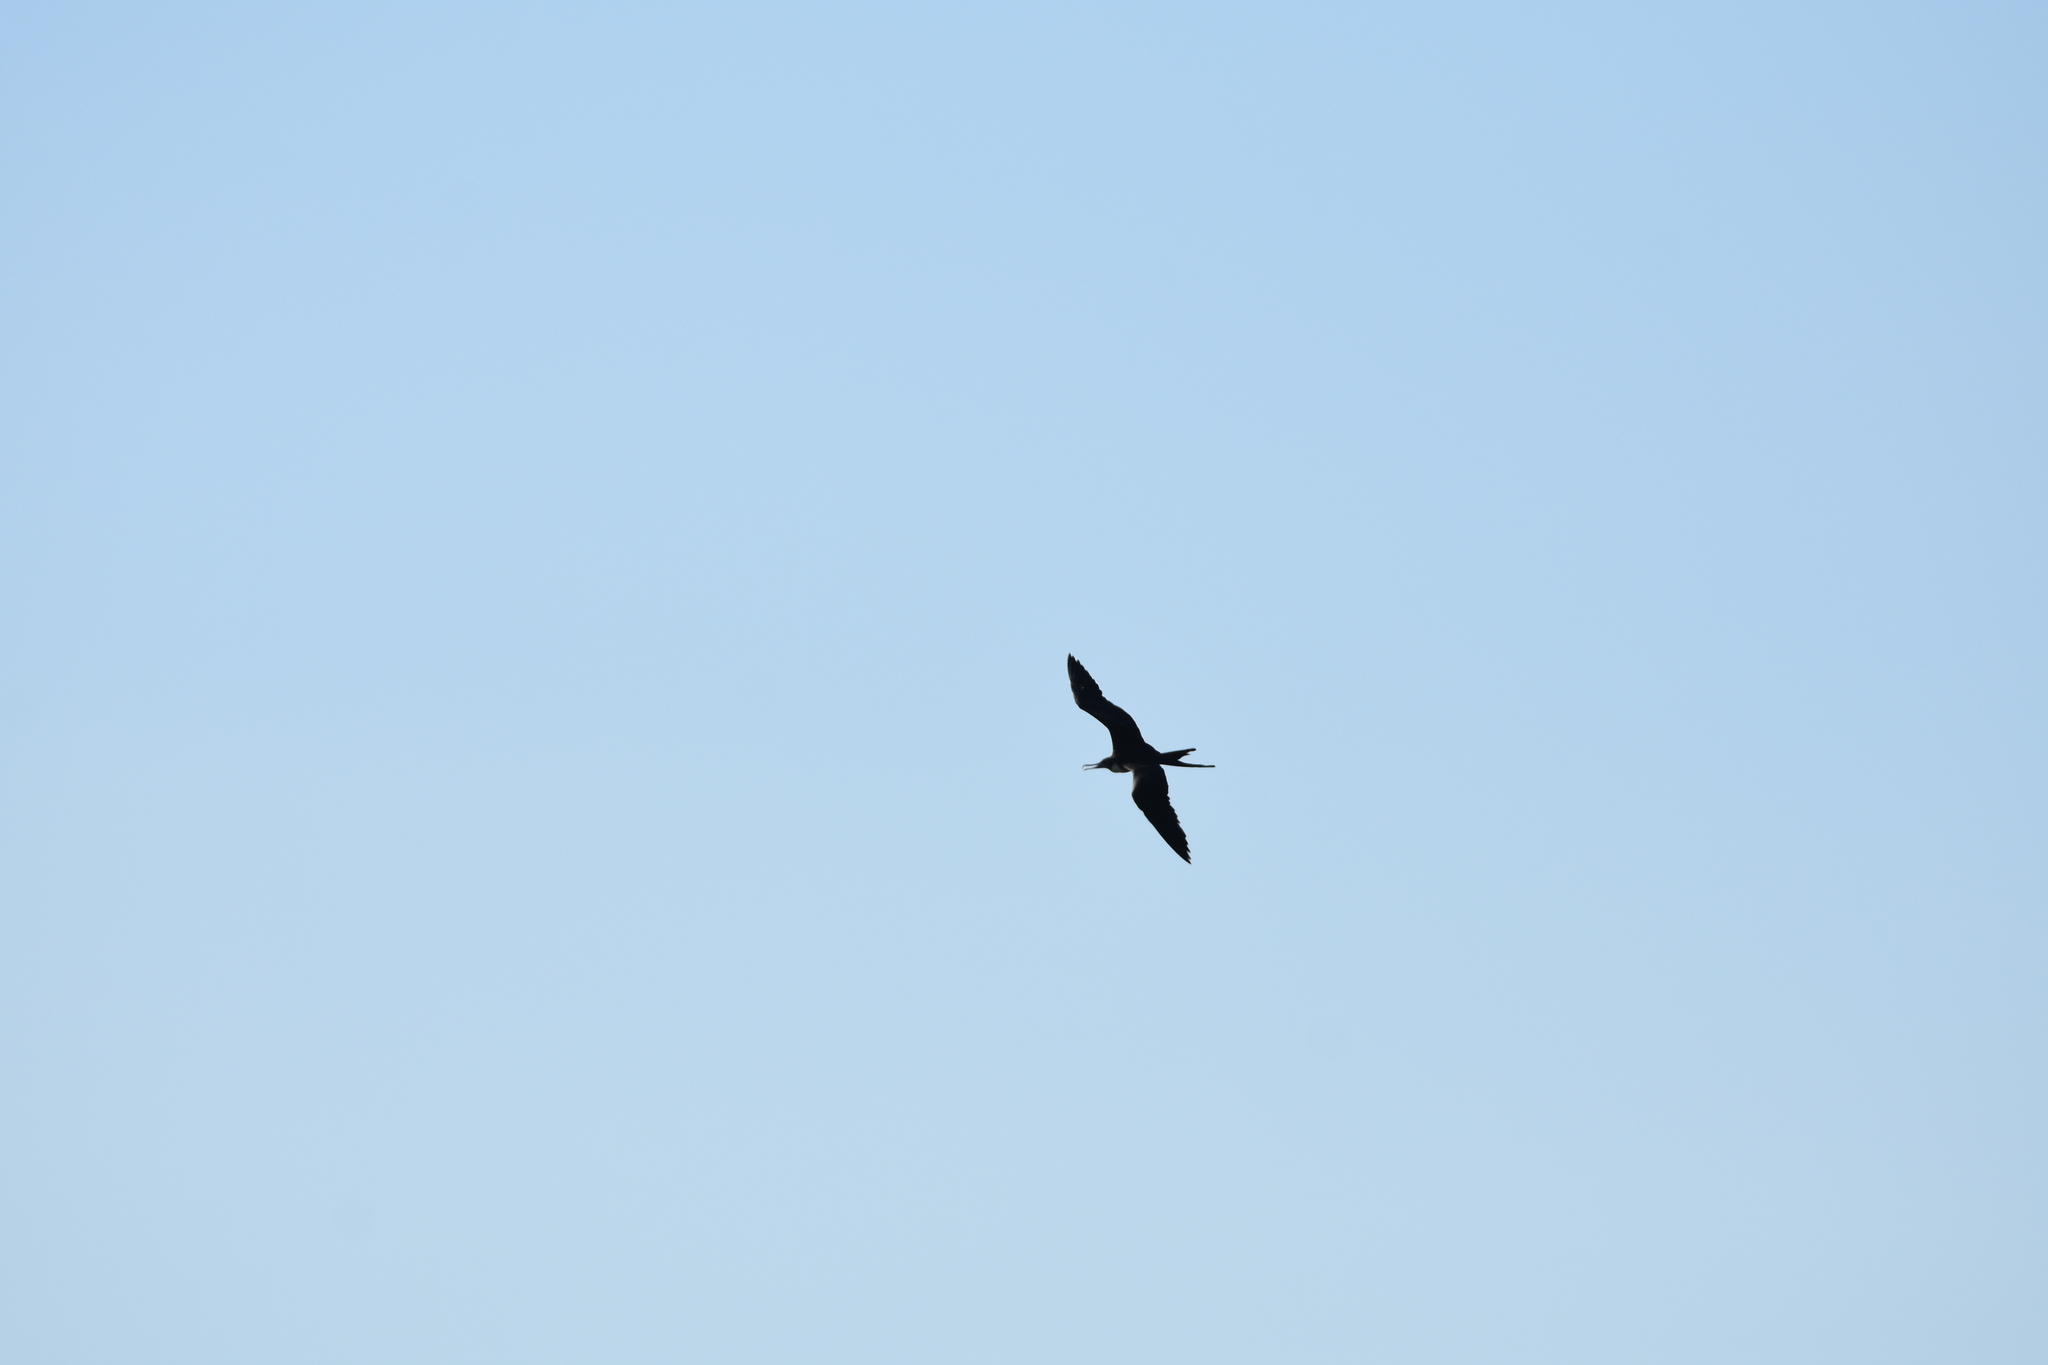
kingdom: Animalia
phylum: Chordata
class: Aves
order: Suliformes
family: Fregatidae
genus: Fregata
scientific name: Fregata magnificens
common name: Magnificent frigatebird
